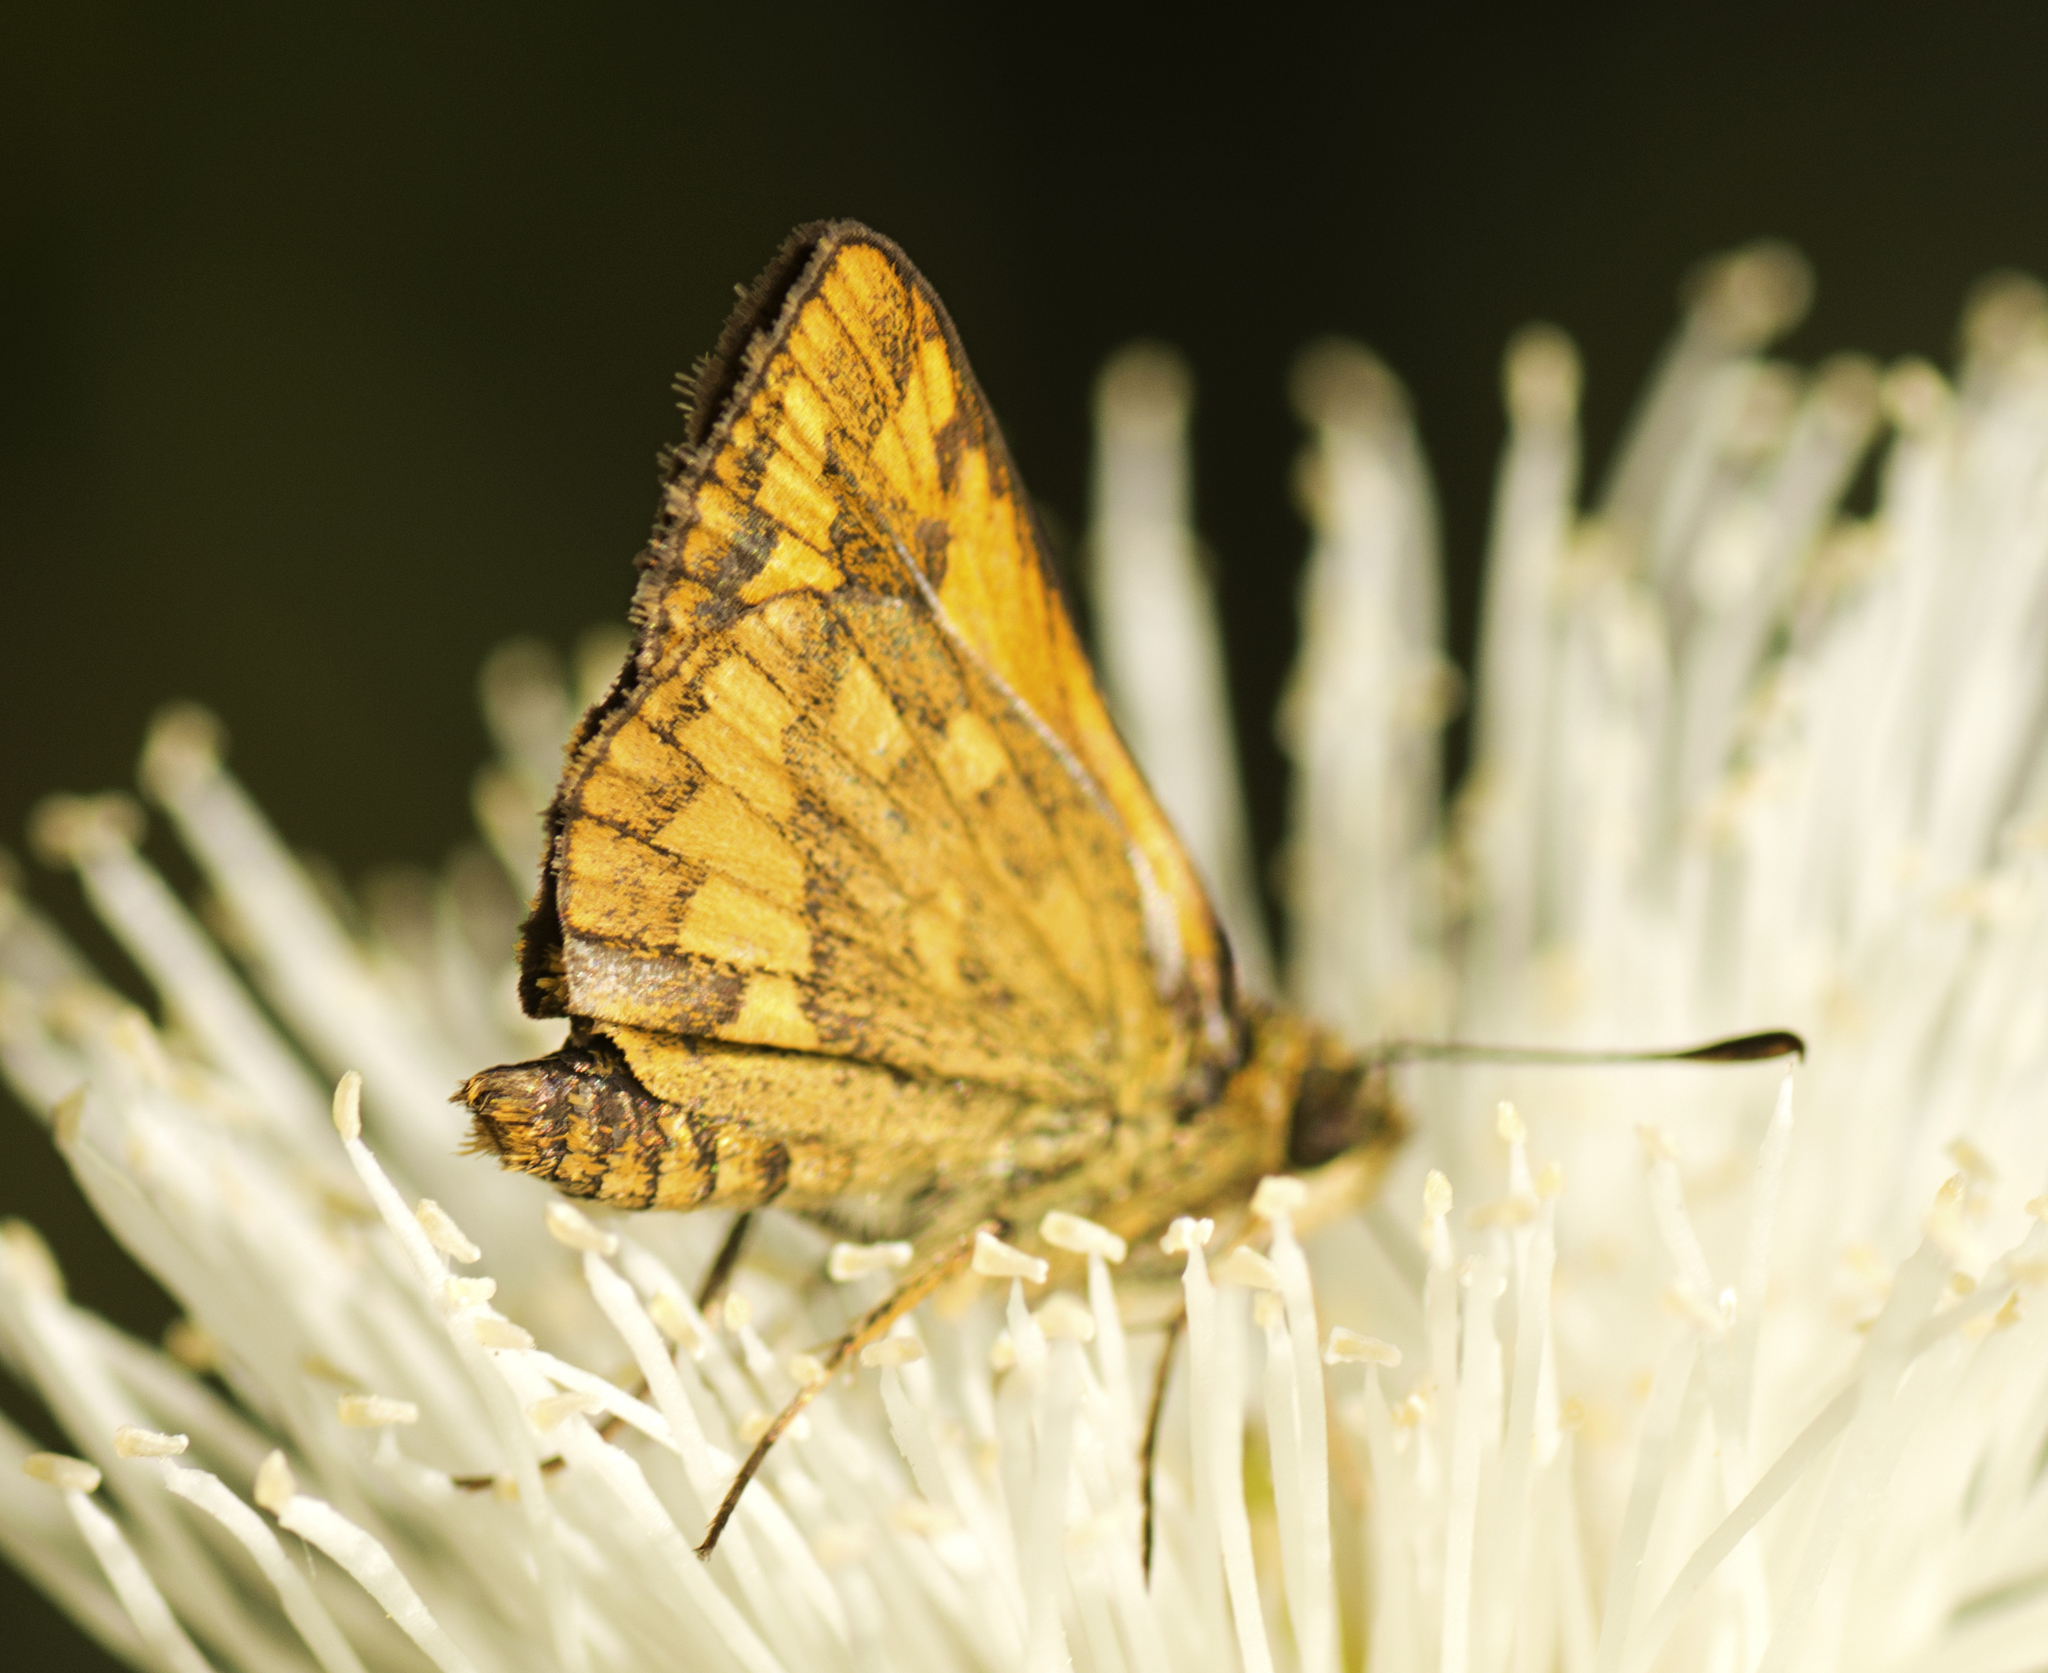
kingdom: Animalia
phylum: Arthropoda
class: Insecta
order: Lepidoptera
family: Hesperiidae
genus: Suniana
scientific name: Suniana sunias
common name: Wide-brand grass-dart
